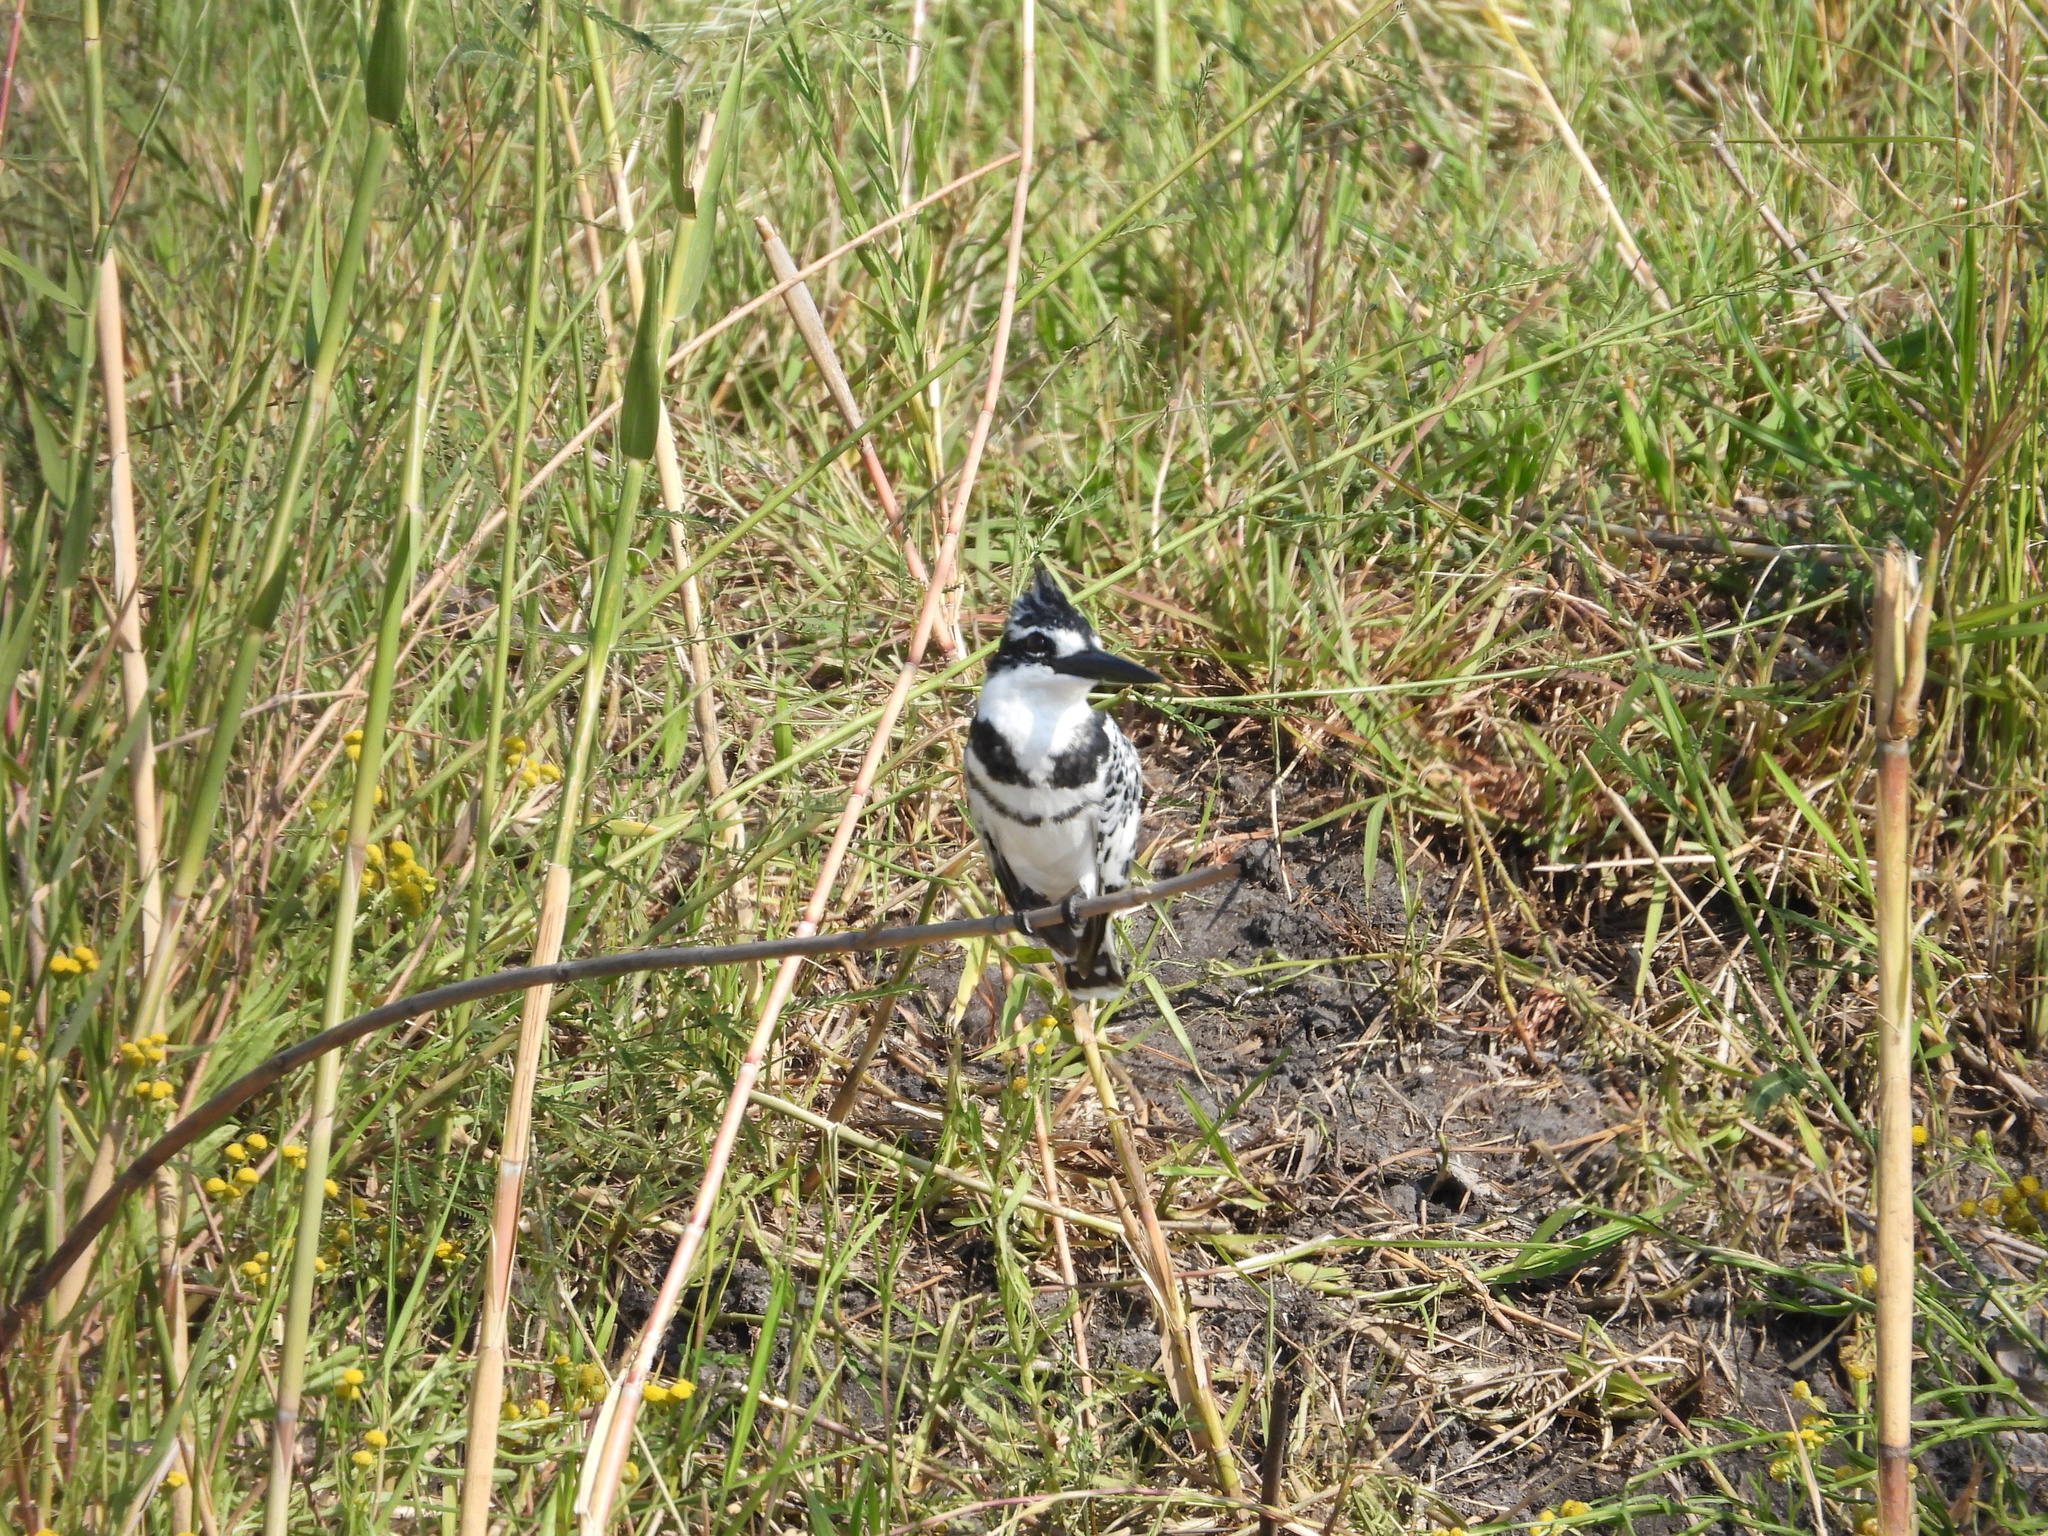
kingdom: Animalia
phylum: Chordata
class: Aves
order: Coraciiformes
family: Alcedinidae
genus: Ceryle
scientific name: Ceryle rudis
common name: Pied kingfisher
